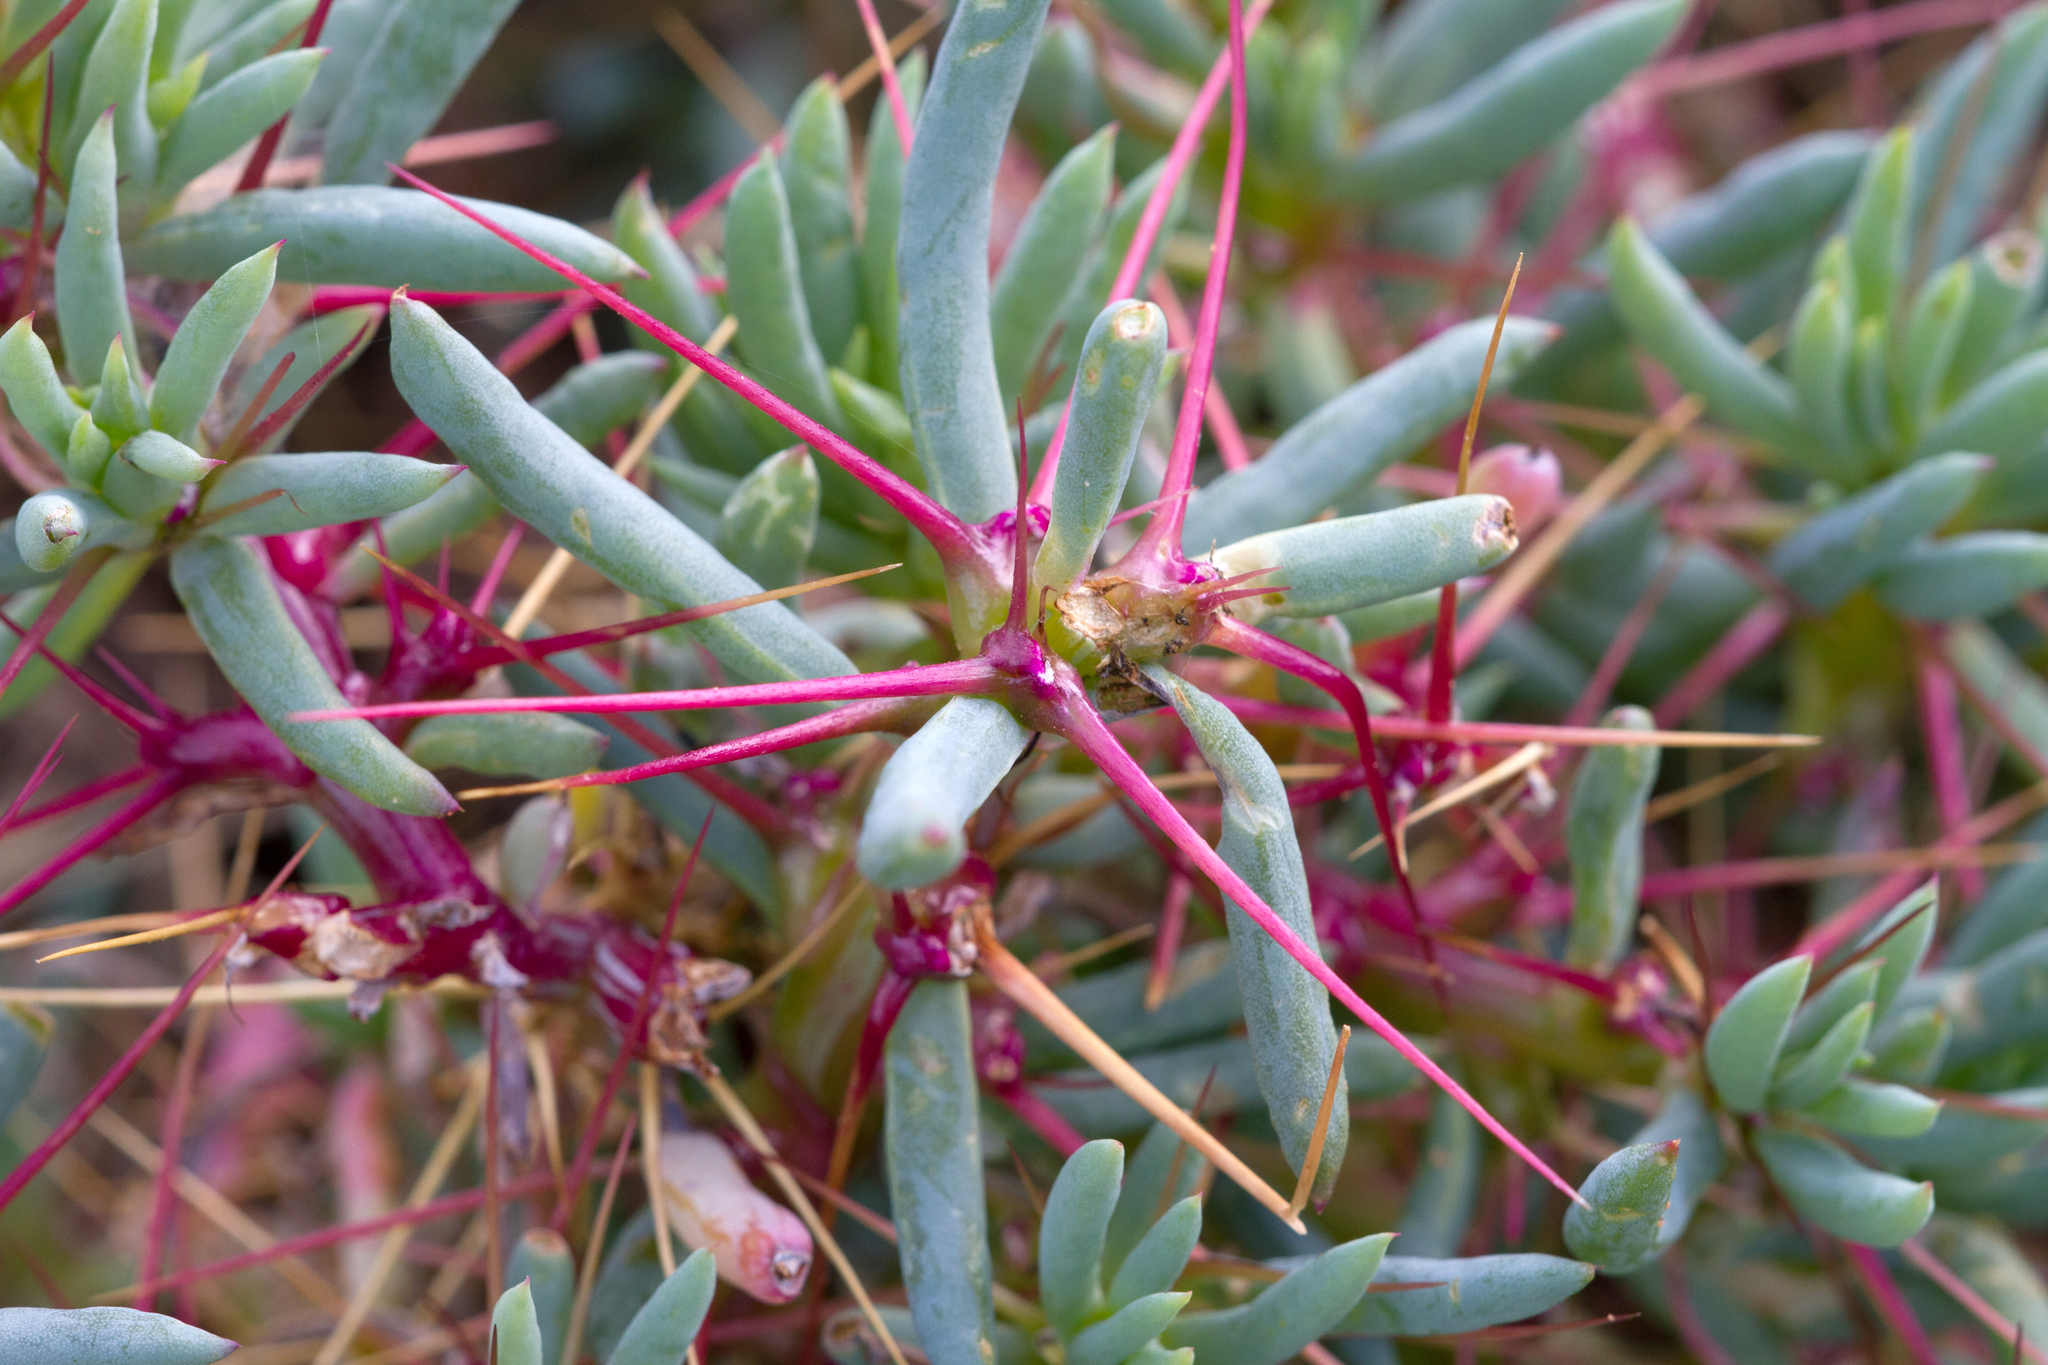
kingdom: Plantae
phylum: Tracheophyta
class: Magnoliopsida
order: Caryophyllales
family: Amaranthaceae
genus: Sclerolaena
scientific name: Sclerolaena longicuspis
